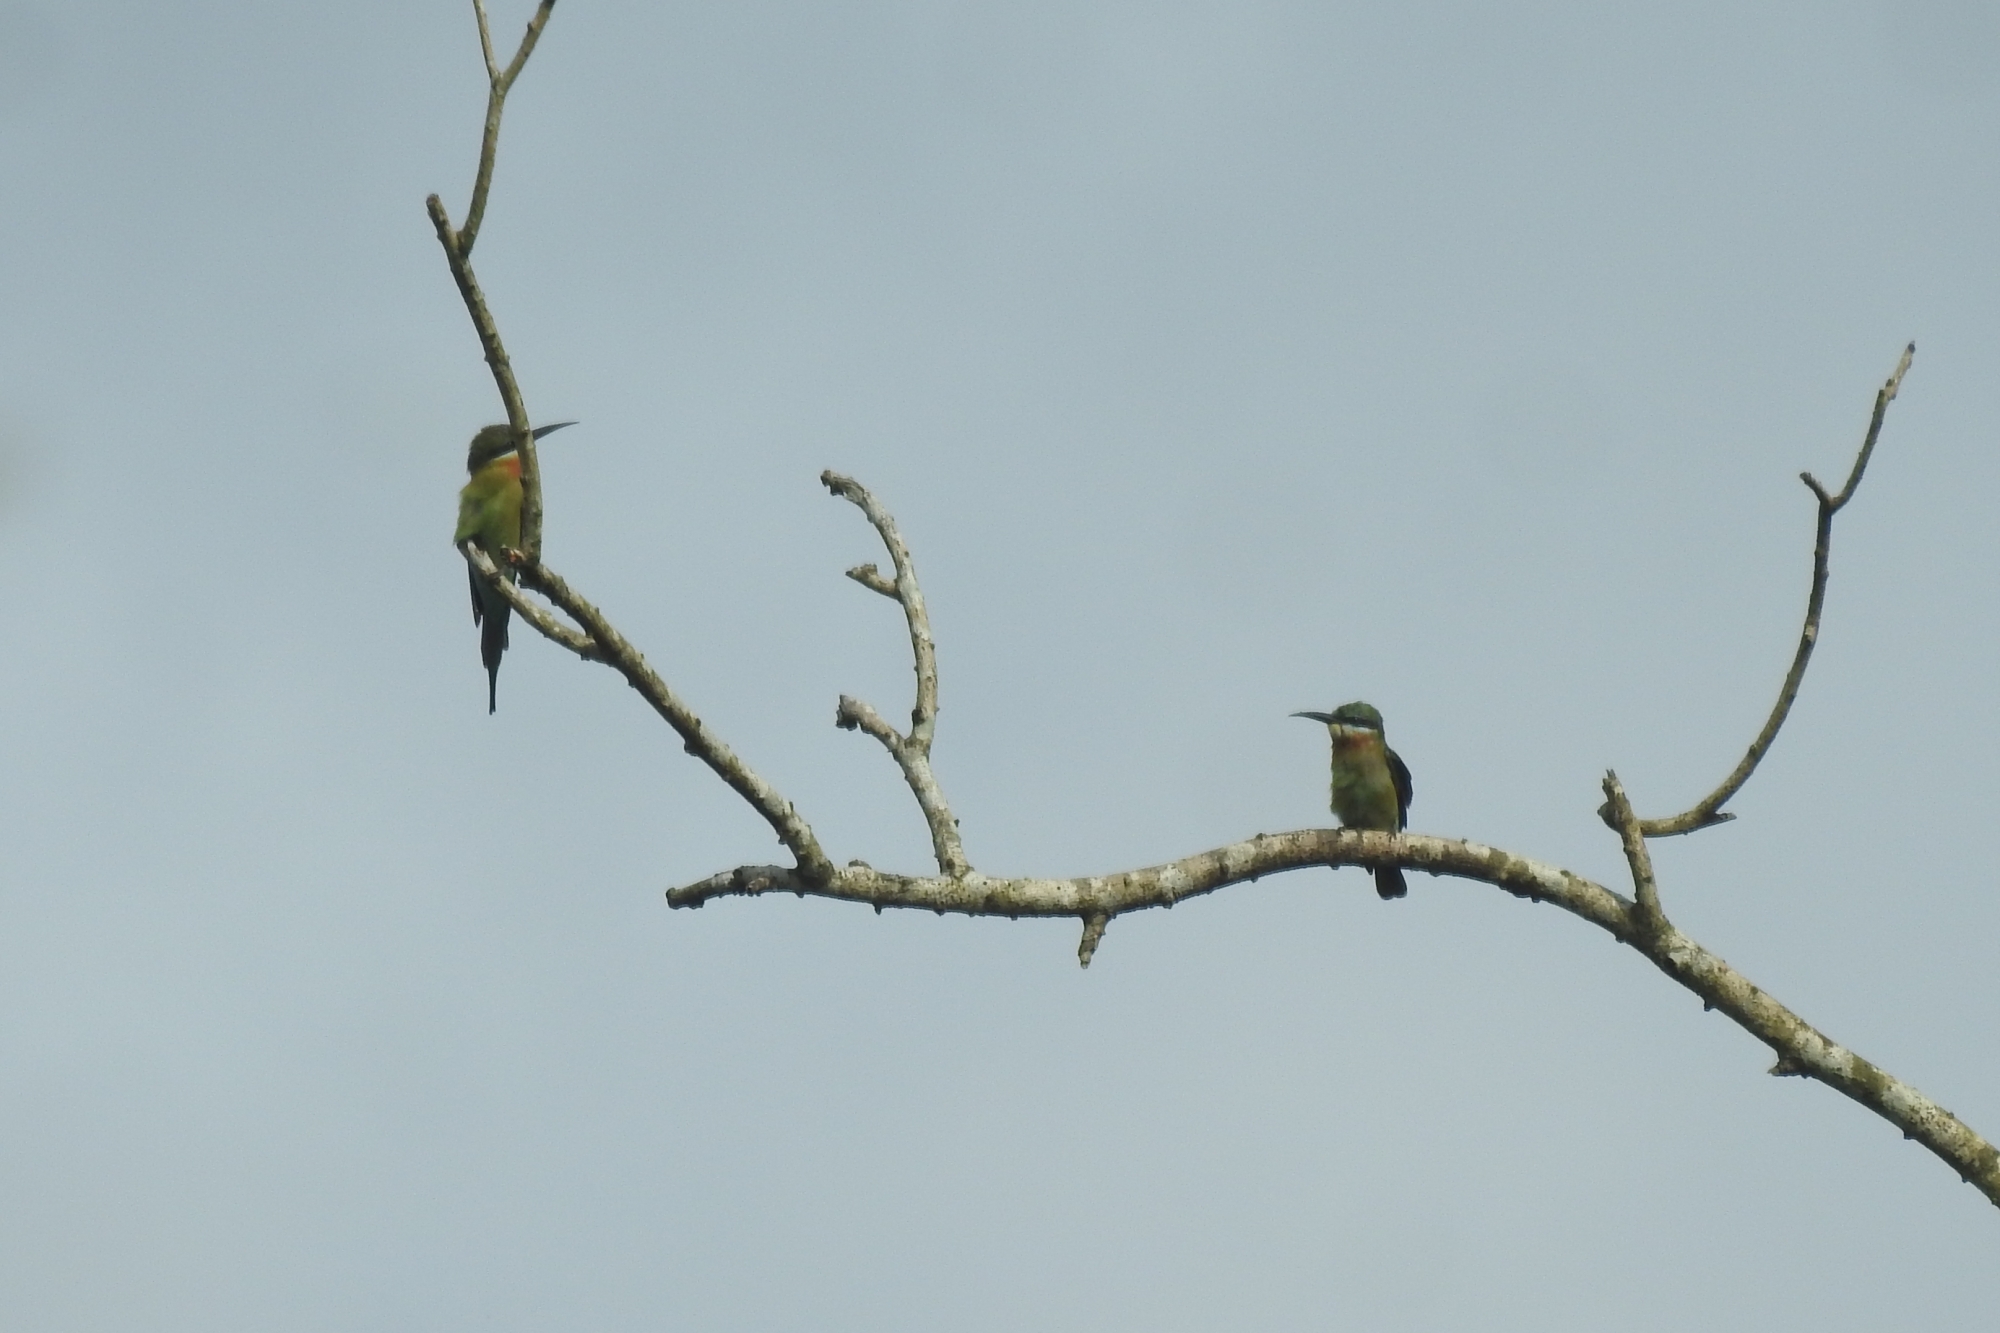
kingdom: Animalia
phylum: Chordata
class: Aves
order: Coraciiformes
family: Meropidae
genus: Merops
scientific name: Merops philippinus
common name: Blue-tailed bee-eater
